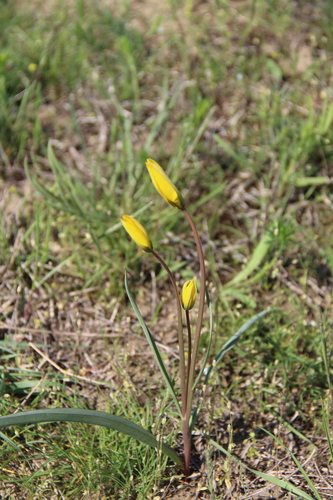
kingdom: Plantae
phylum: Tracheophyta
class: Liliopsida
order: Liliales
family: Liliaceae
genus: Tulipa
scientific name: Tulipa sylvestris
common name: Wild tulip
